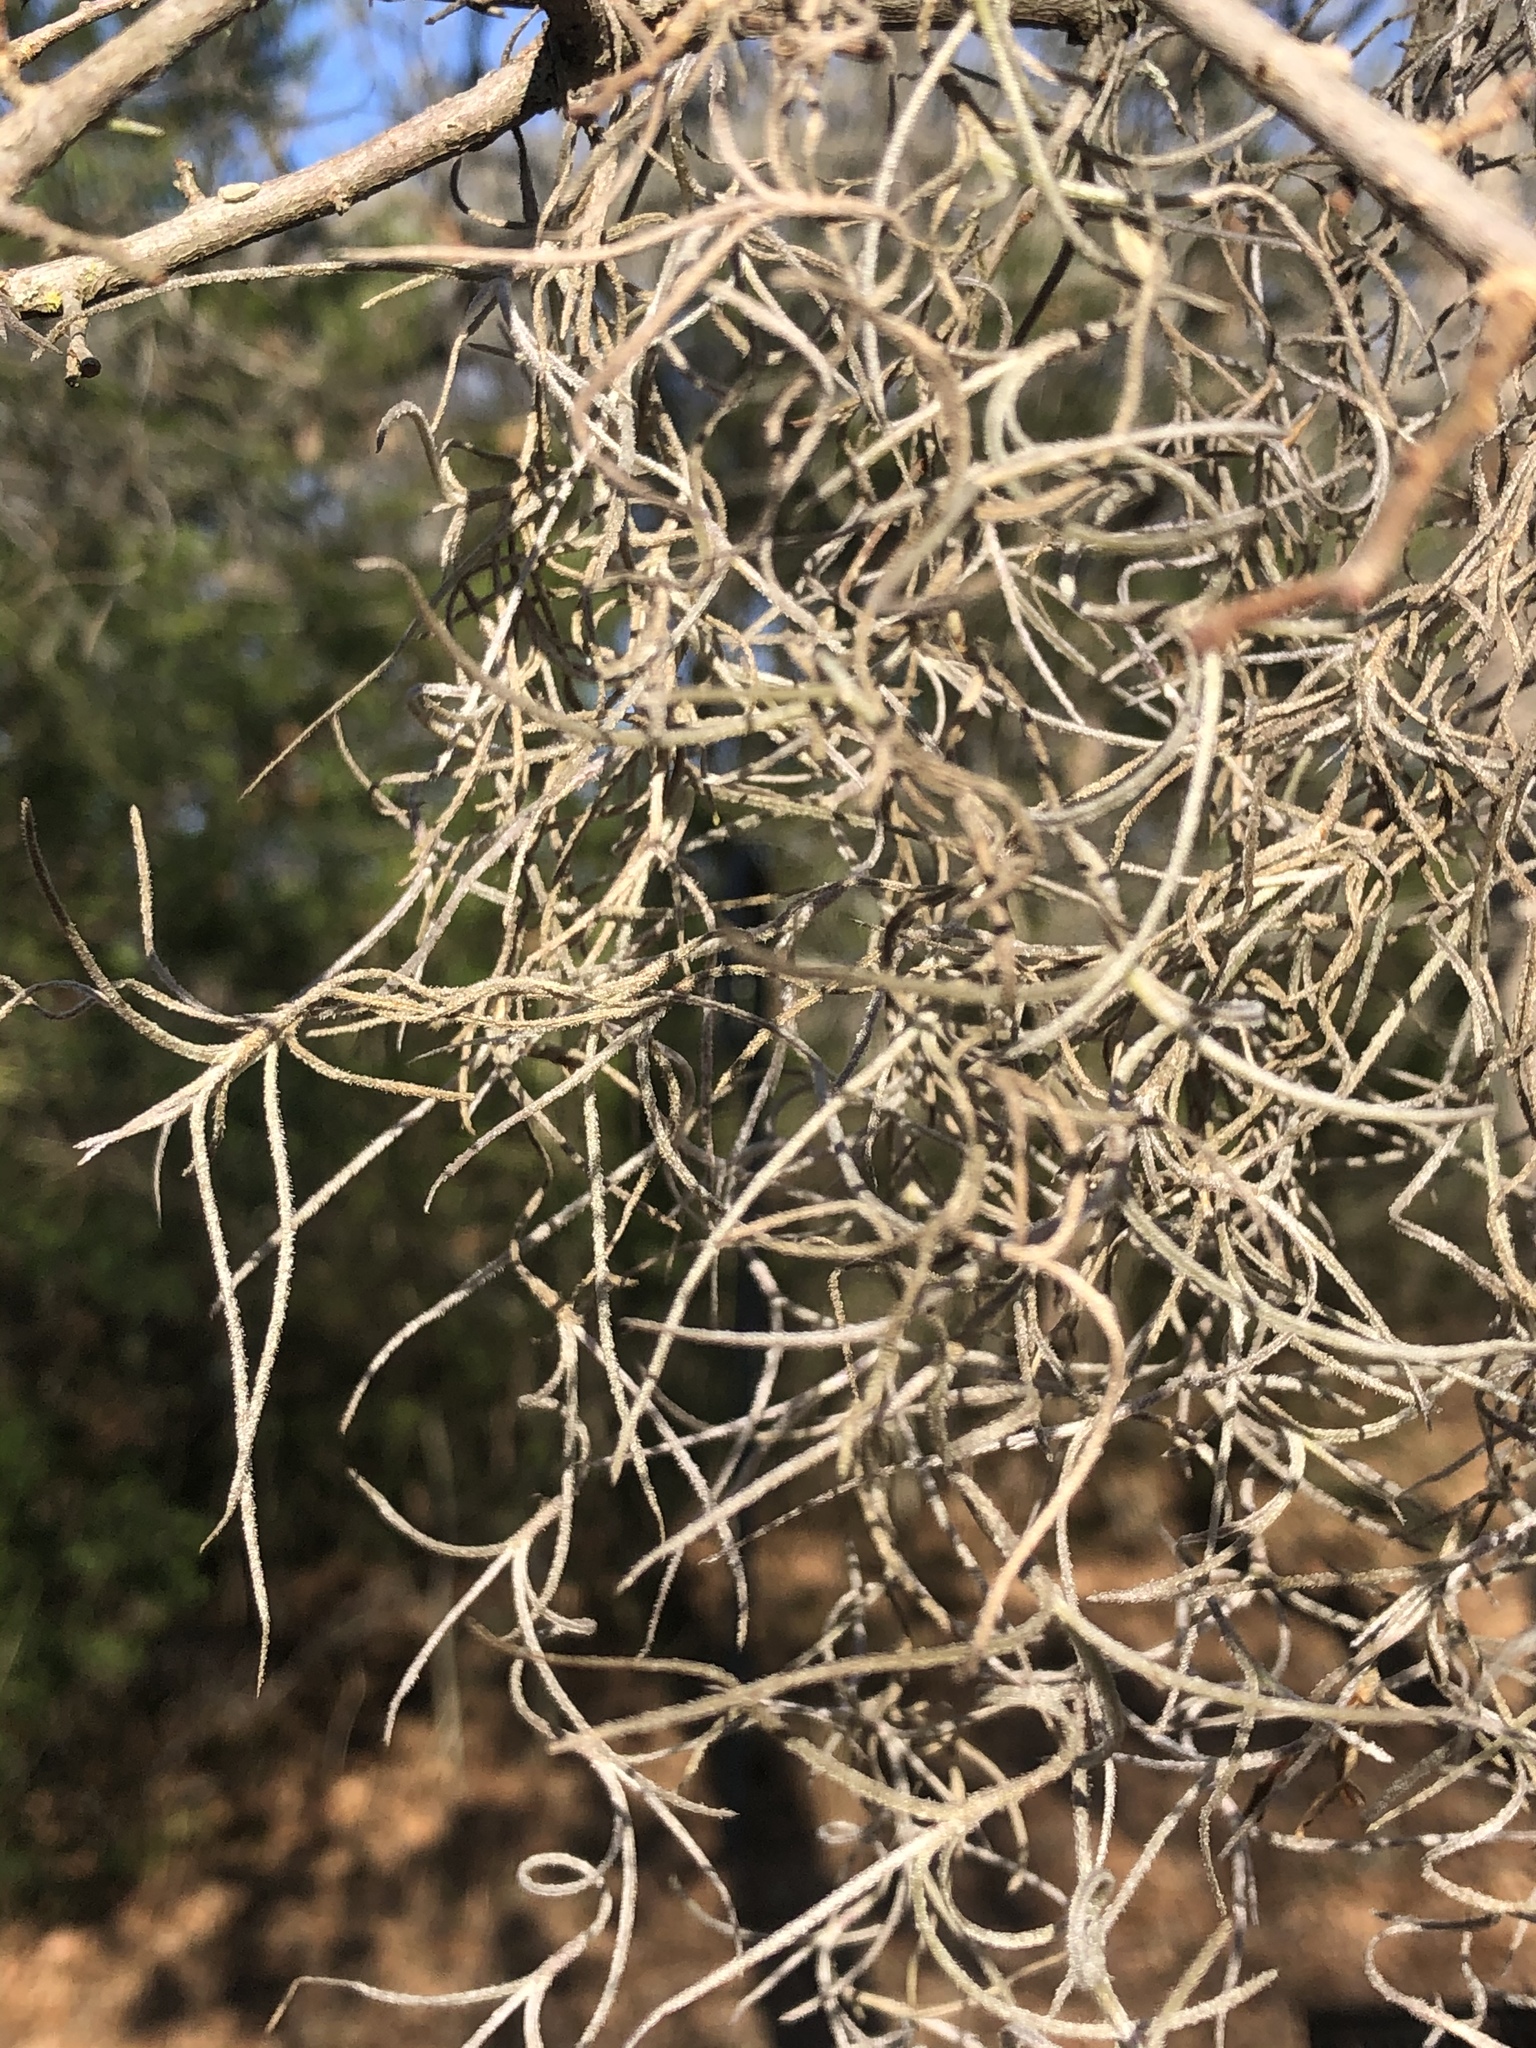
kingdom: Plantae
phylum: Tracheophyta
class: Liliopsida
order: Poales
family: Bromeliaceae
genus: Tillandsia
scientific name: Tillandsia usneoides
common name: Spanish moss
